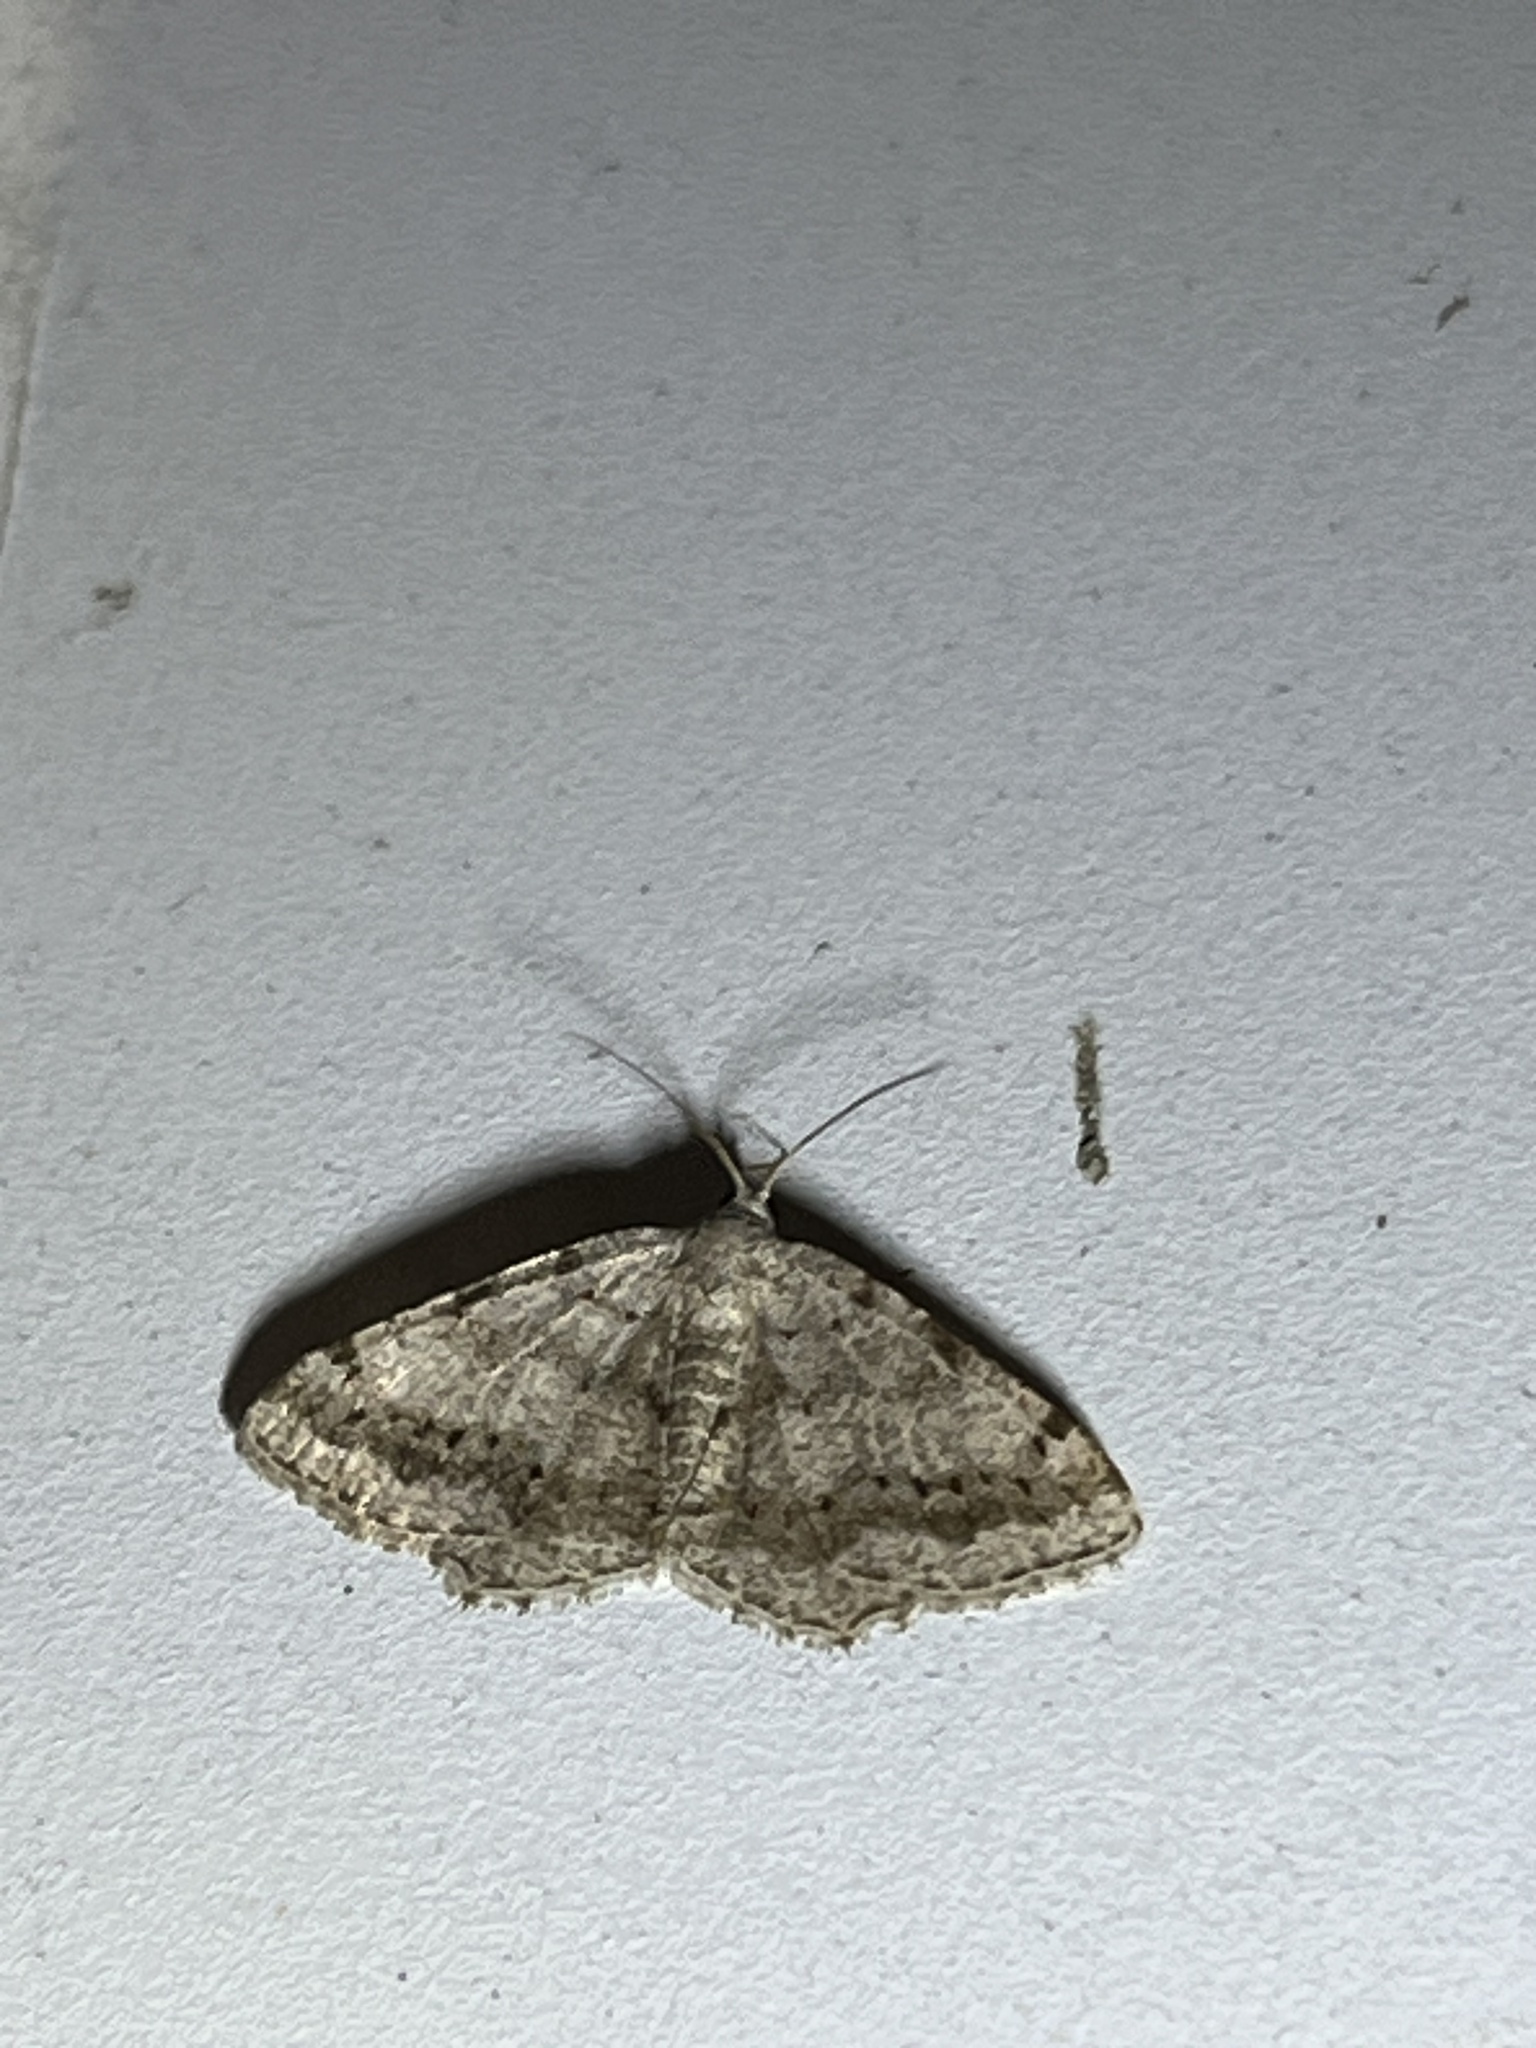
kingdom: Animalia
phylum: Arthropoda
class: Insecta
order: Lepidoptera
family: Geometridae
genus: Digrammia
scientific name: Digrammia ocellinata
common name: Faint-spotted angle
